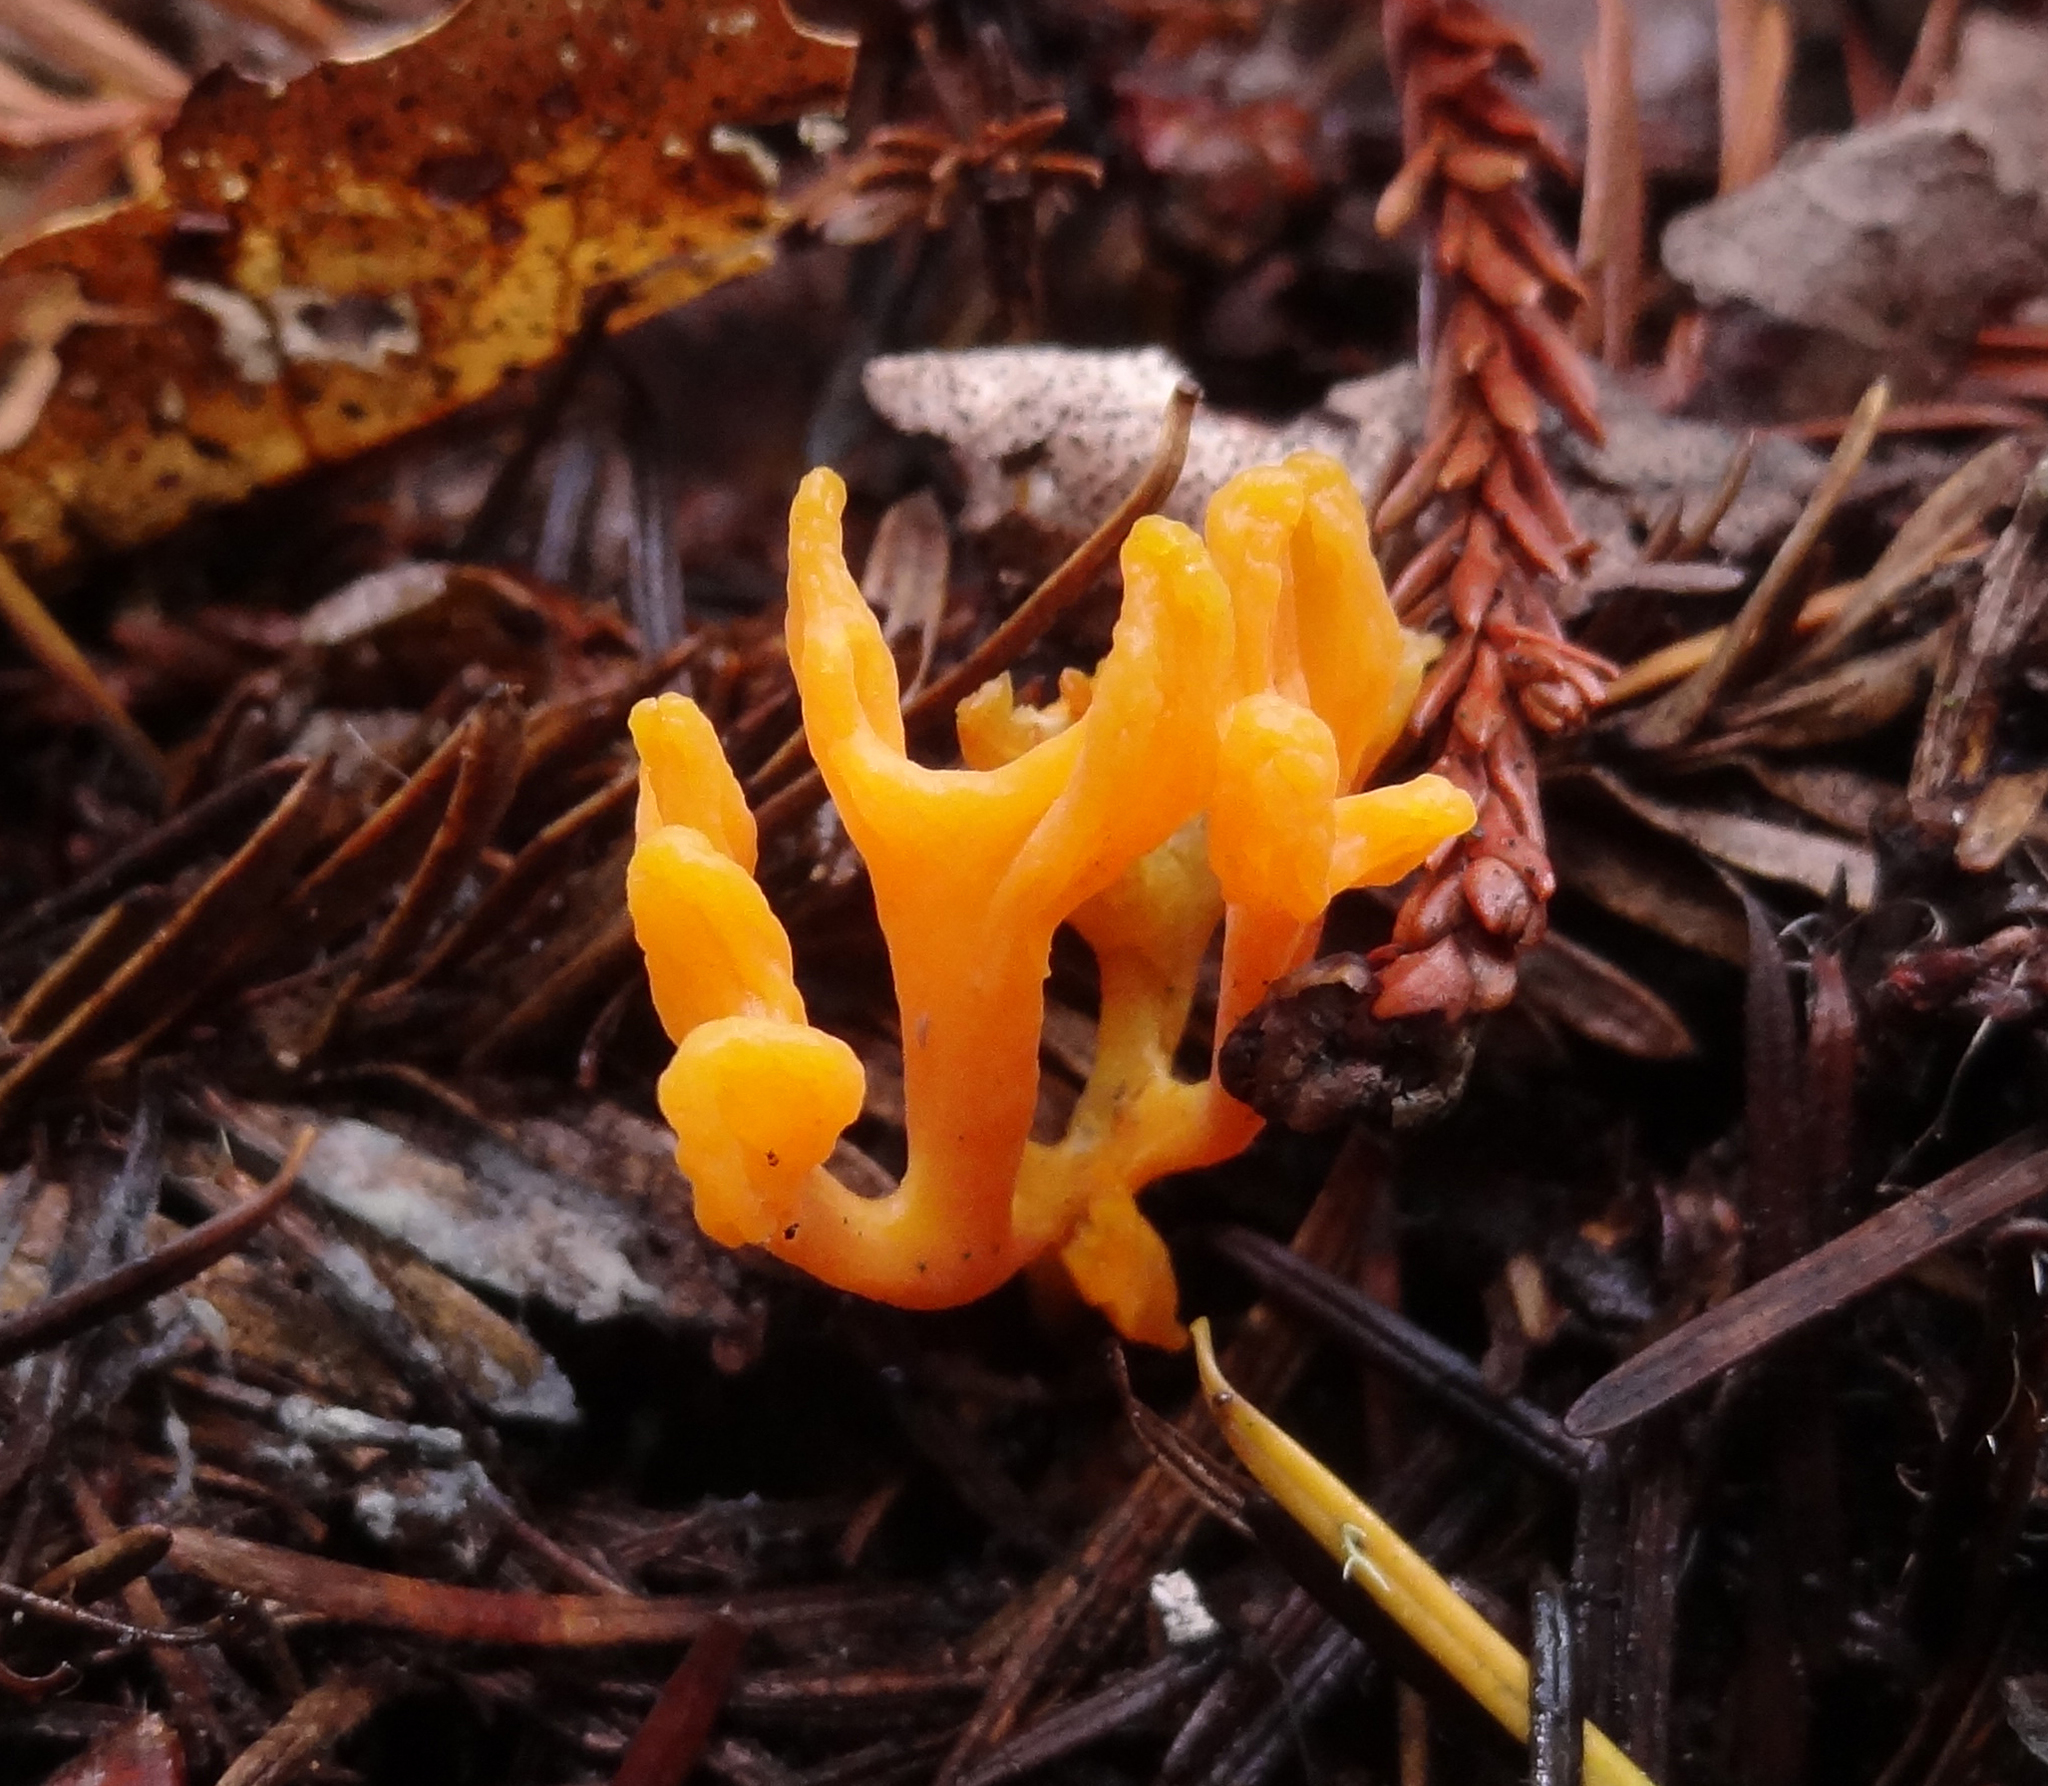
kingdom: Fungi
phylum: Basidiomycota
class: Dacrymycetes
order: Dacrymycetales
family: Dacrymycetaceae
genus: Calocera
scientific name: Calocera viscosa
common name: Yellow stagshorn
